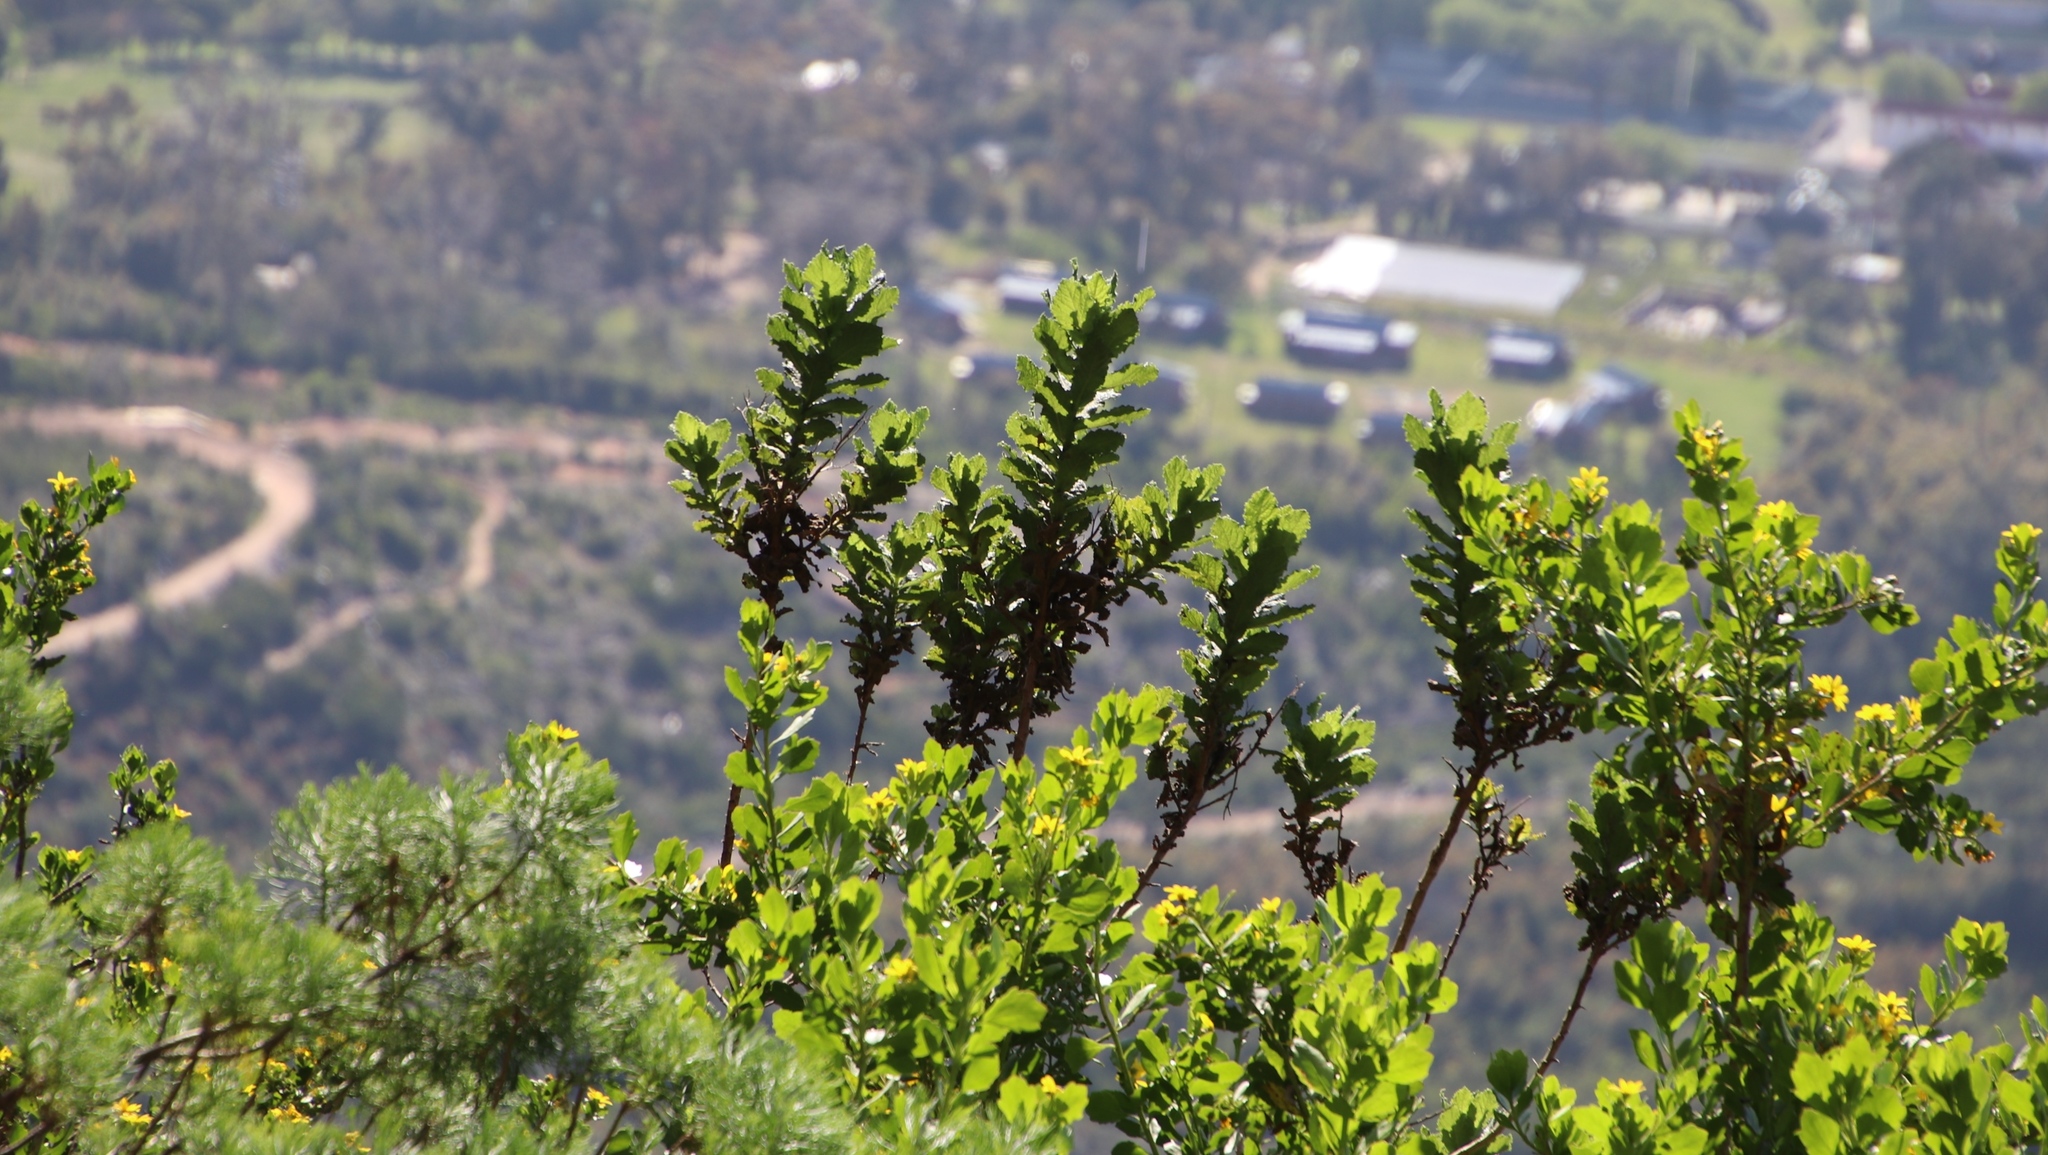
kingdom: Plantae
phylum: Tracheophyta
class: Magnoliopsida
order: Asterales
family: Asteraceae
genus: Senecio
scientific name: Senecio rigidus
